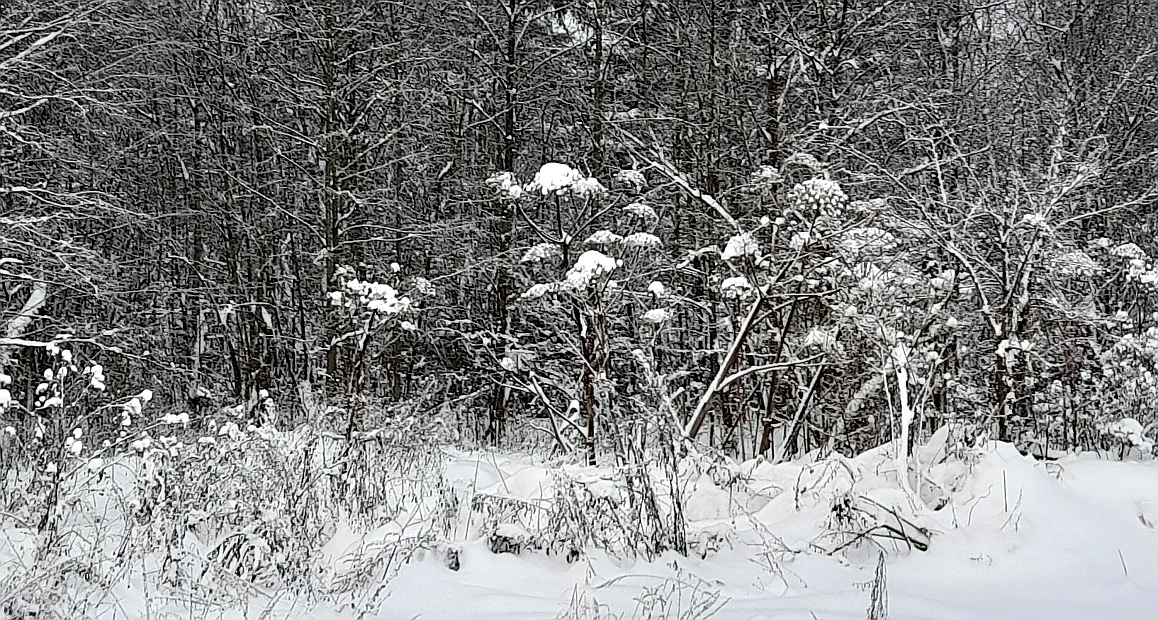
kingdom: Plantae
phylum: Tracheophyta
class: Magnoliopsida
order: Apiales
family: Apiaceae
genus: Heracleum
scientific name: Heracleum sosnowskyi
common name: Sosnowsky's hogweed
